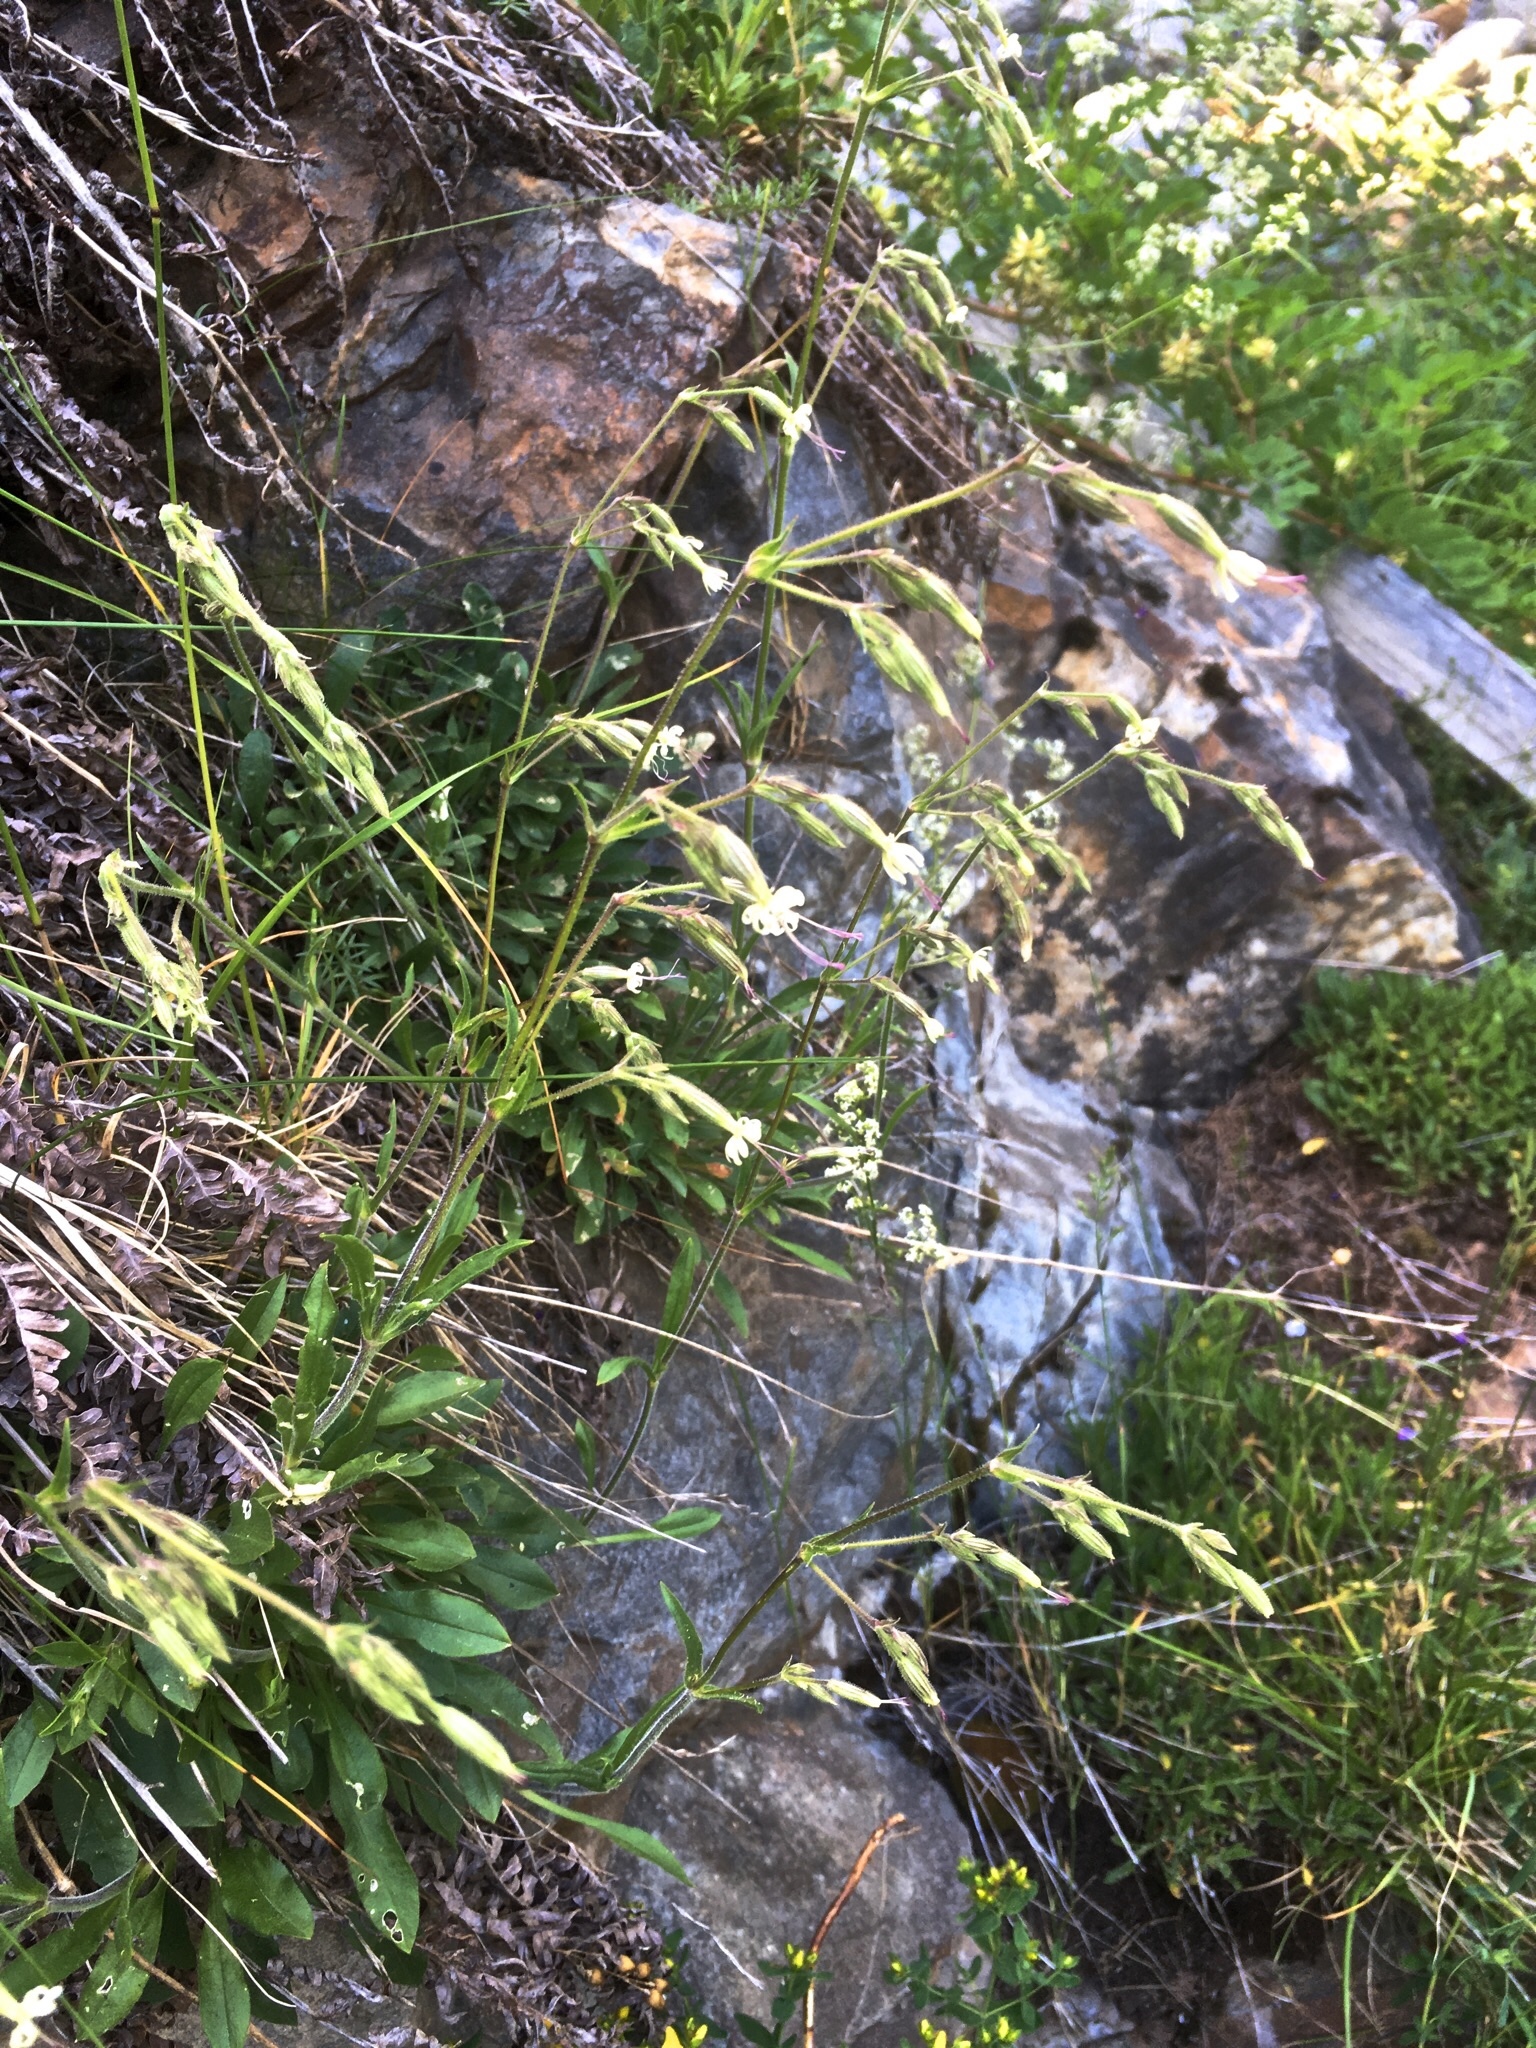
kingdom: Plantae
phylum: Tracheophyta
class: Magnoliopsida
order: Caryophyllales
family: Caryophyllaceae
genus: Silene
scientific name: Silene nutans
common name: Nottingham catchfly
